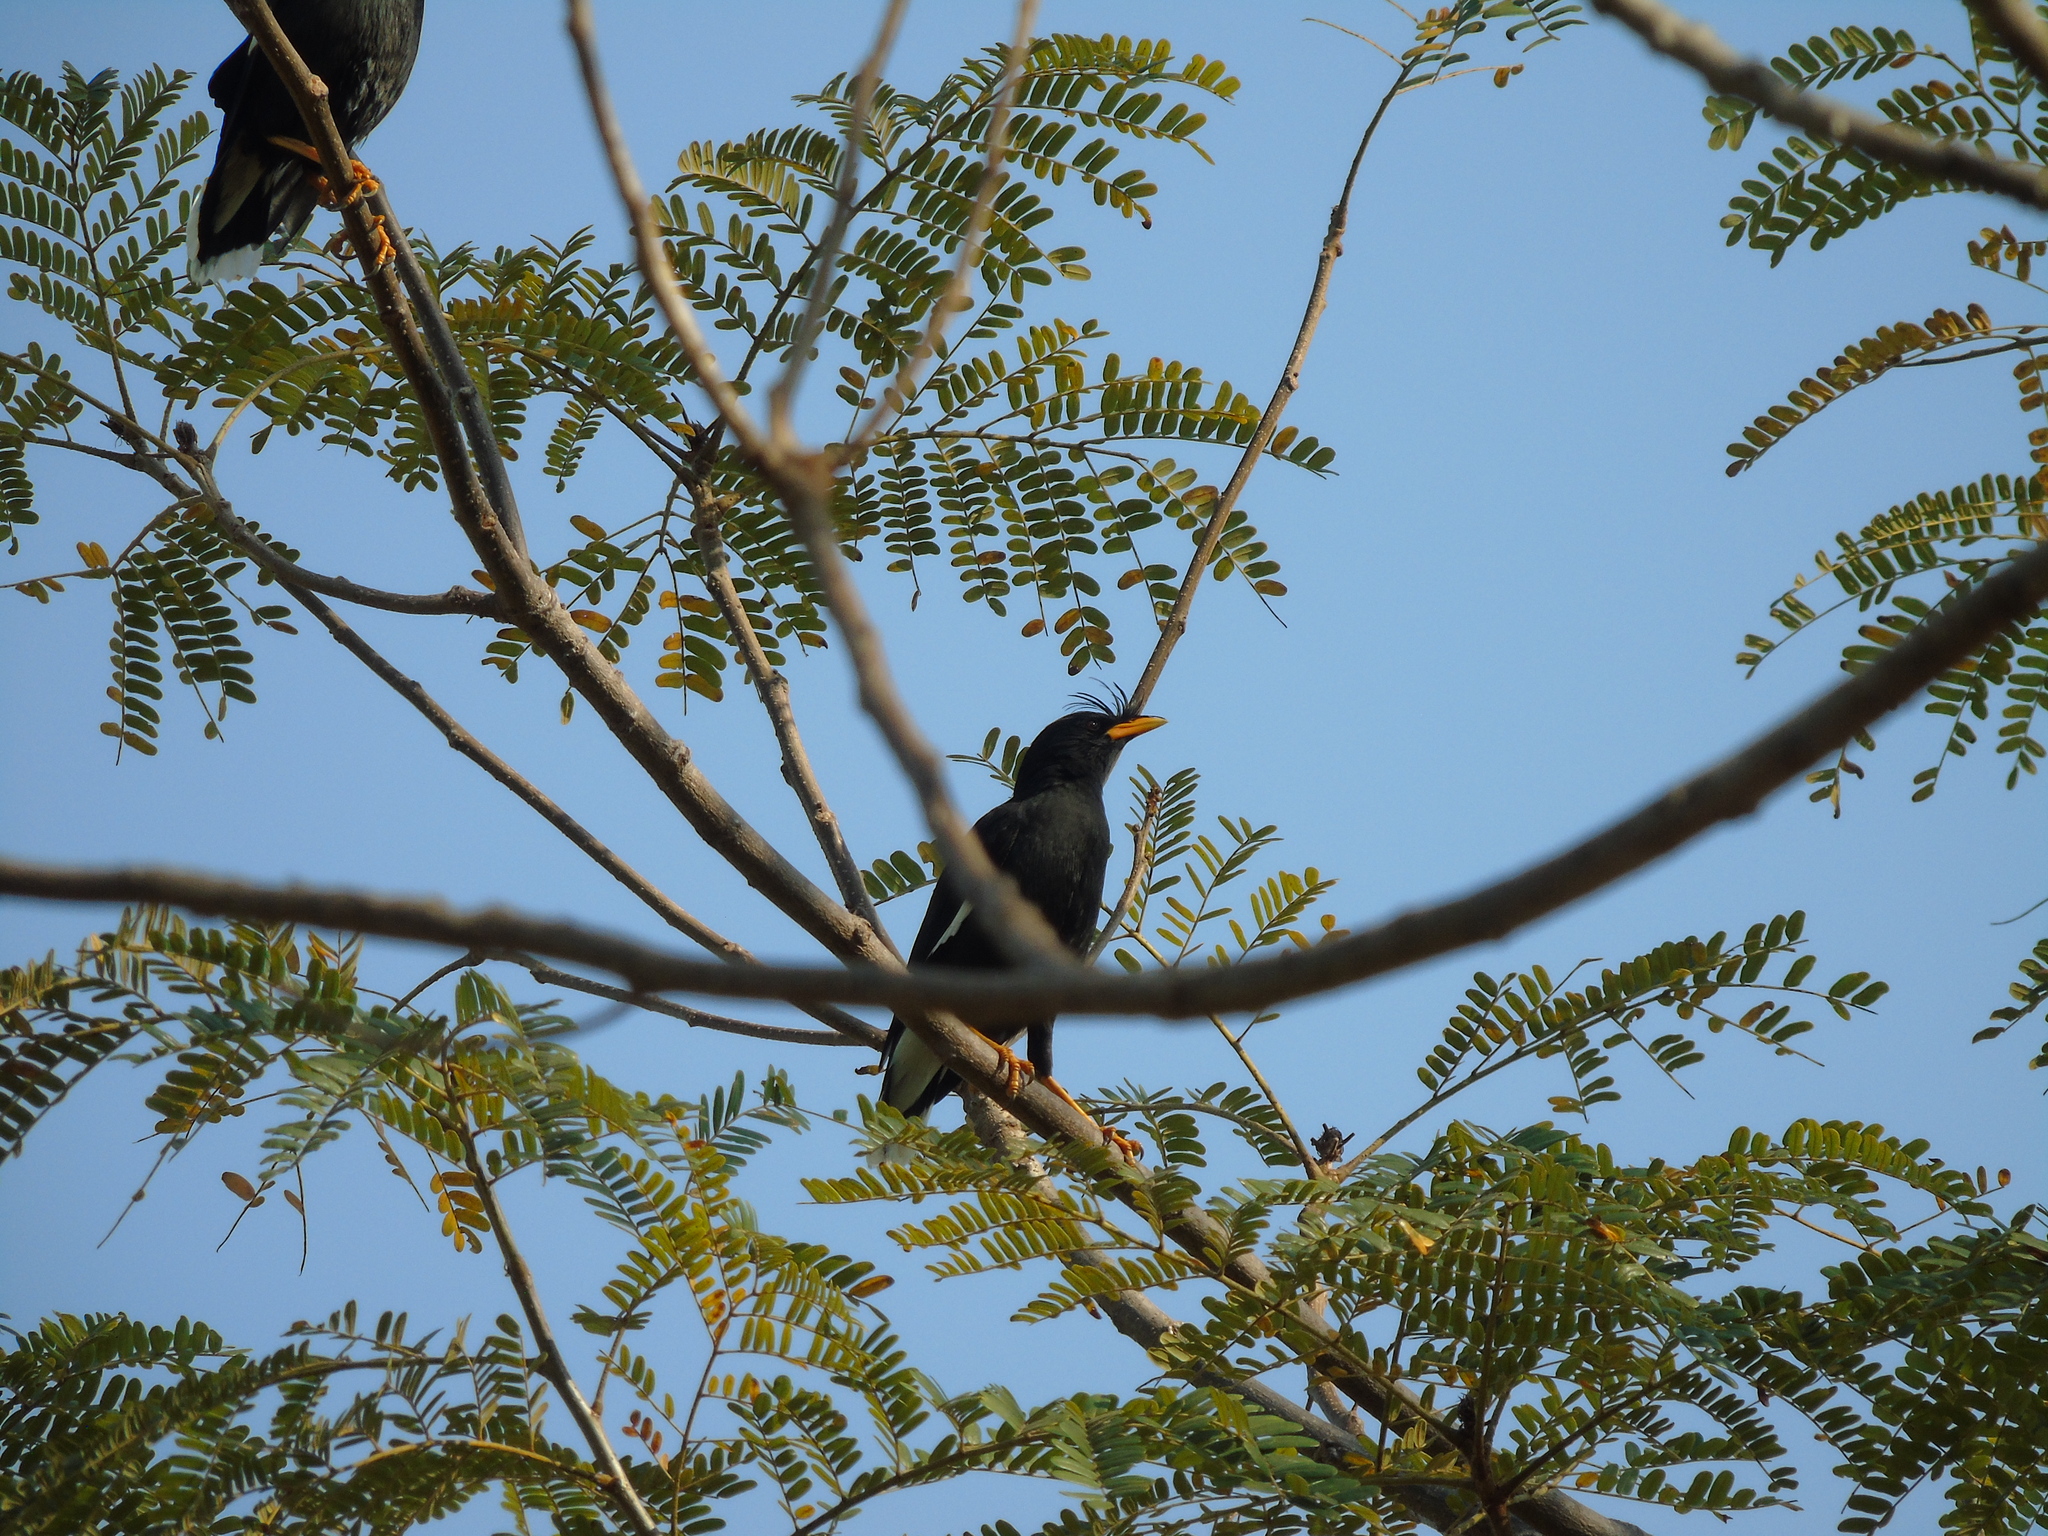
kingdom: Animalia
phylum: Chordata
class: Aves
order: Passeriformes
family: Sturnidae
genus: Acridotheres
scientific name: Acridotheres grandis
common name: Great myna
